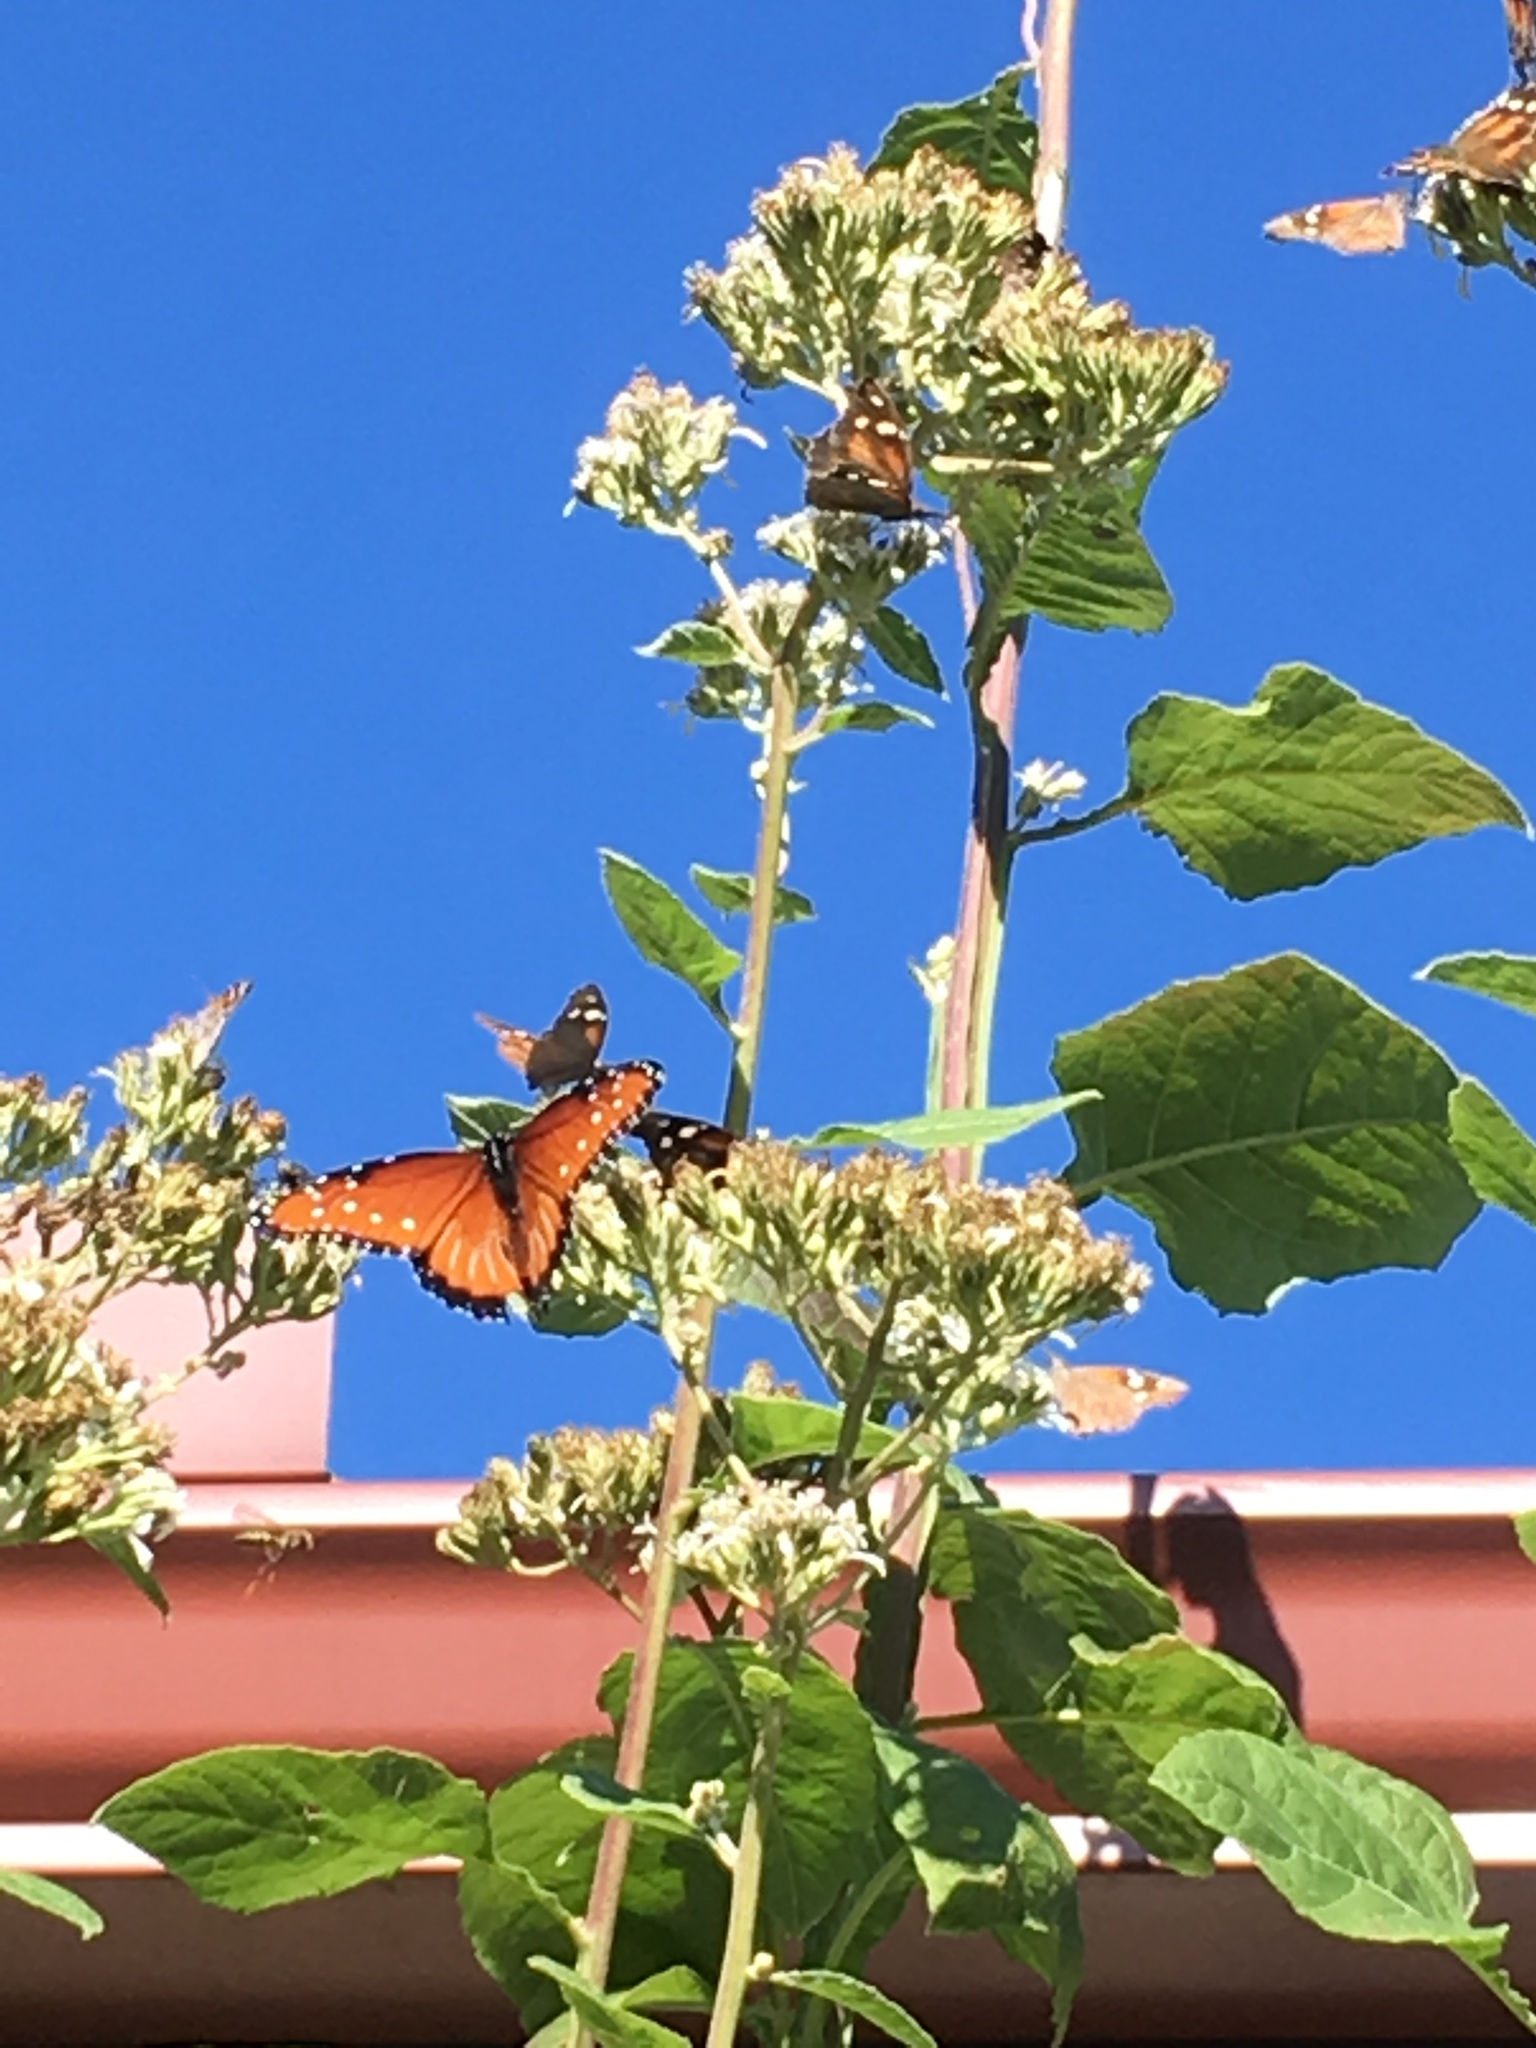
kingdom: Animalia
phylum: Arthropoda
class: Insecta
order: Lepidoptera
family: Nymphalidae
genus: Danaus
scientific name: Danaus gilippus
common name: Queen
